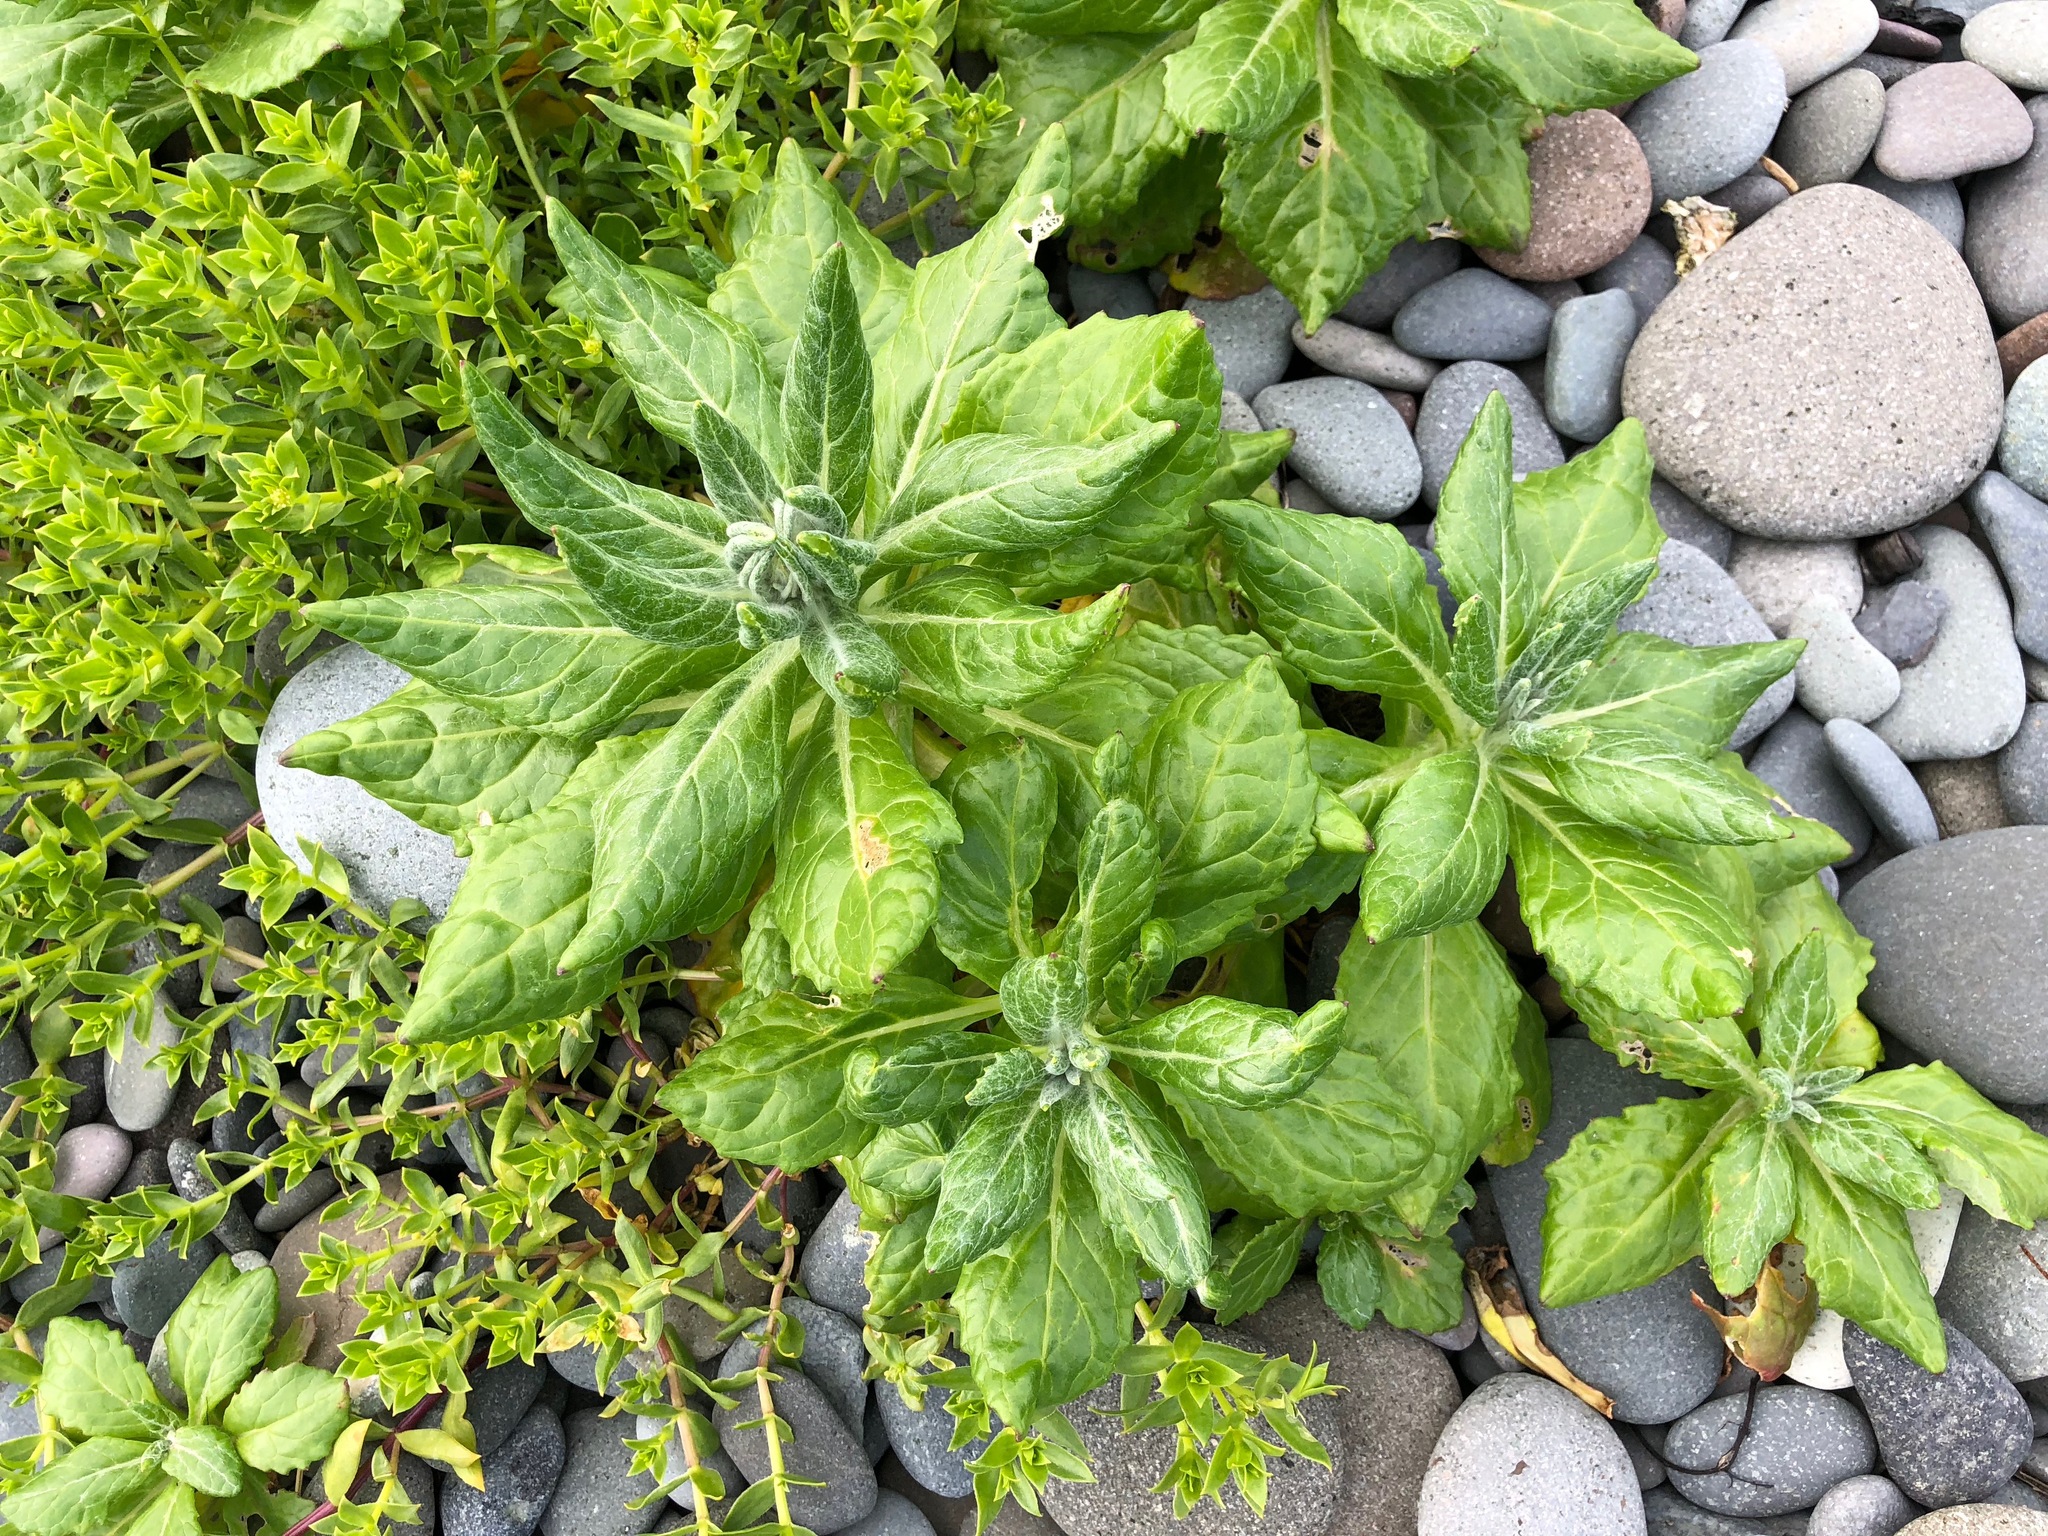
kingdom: Plantae
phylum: Tracheophyta
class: Magnoliopsida
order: Asterales
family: Asteraceae
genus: Jacobaea
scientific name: Jacobaea pseudoarnica
